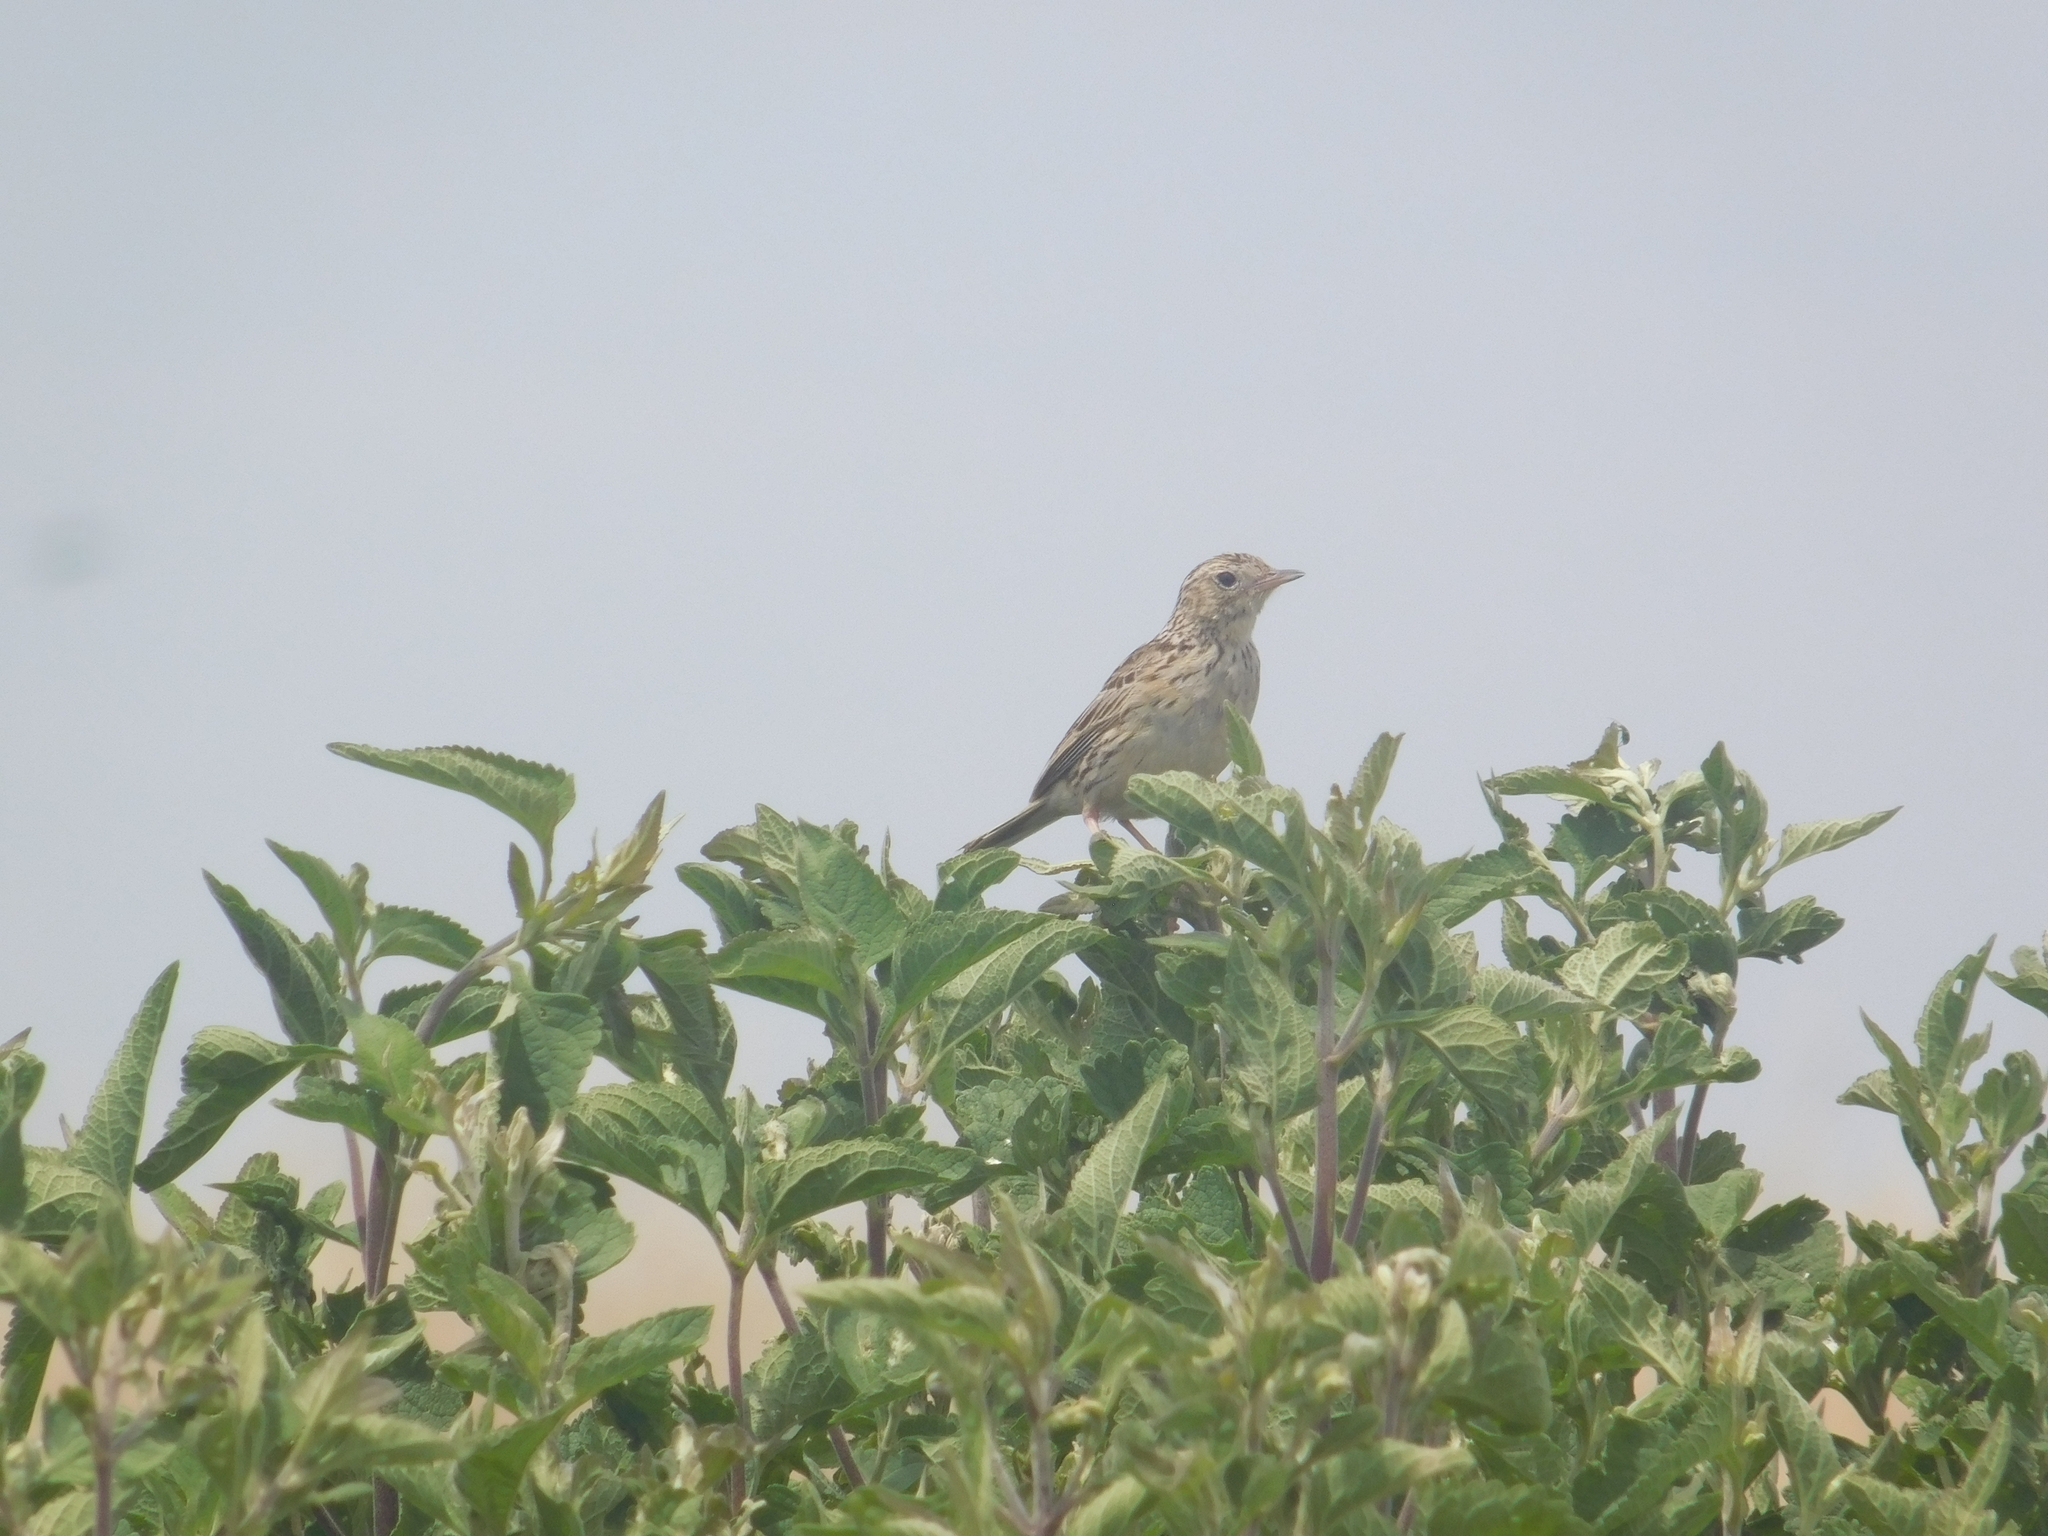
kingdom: Animalia
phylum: Chordata
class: Aves
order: Passeriformes
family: Motacillidae
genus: Anthus
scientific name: Anthus hellmayri
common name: Hellmayr's pipit
